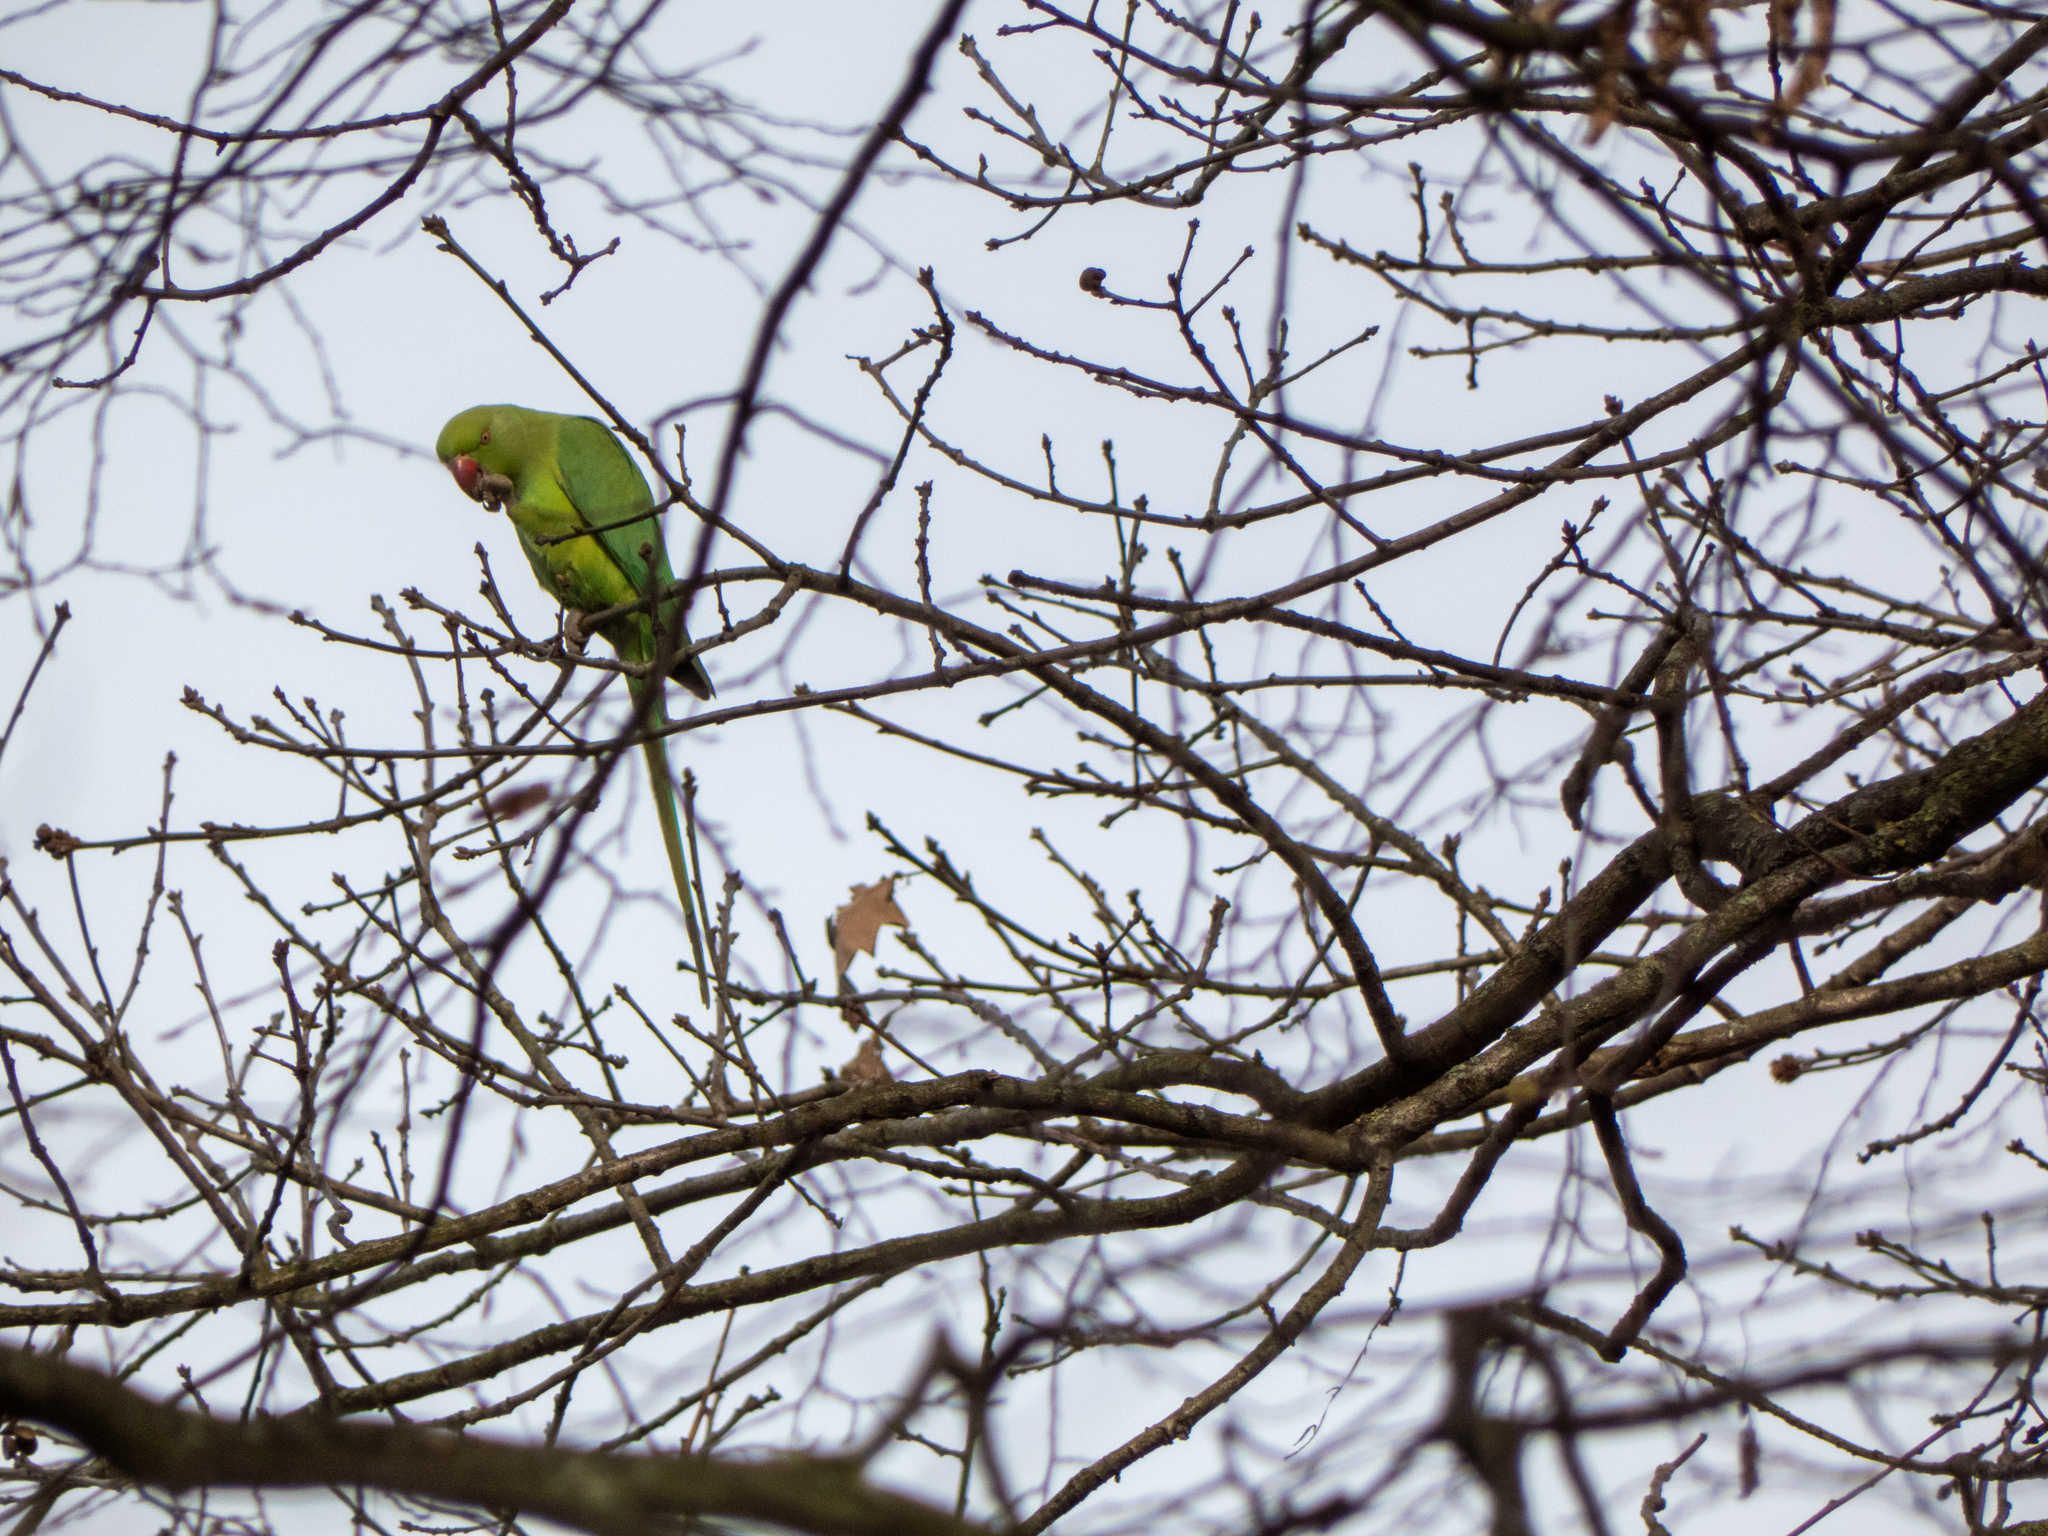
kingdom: Animalia
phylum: Chordata
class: Aves
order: Psittaciformes
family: Psittacidae
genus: Psittacula
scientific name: Psittacula krameri
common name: Rose-ringed parakeet
